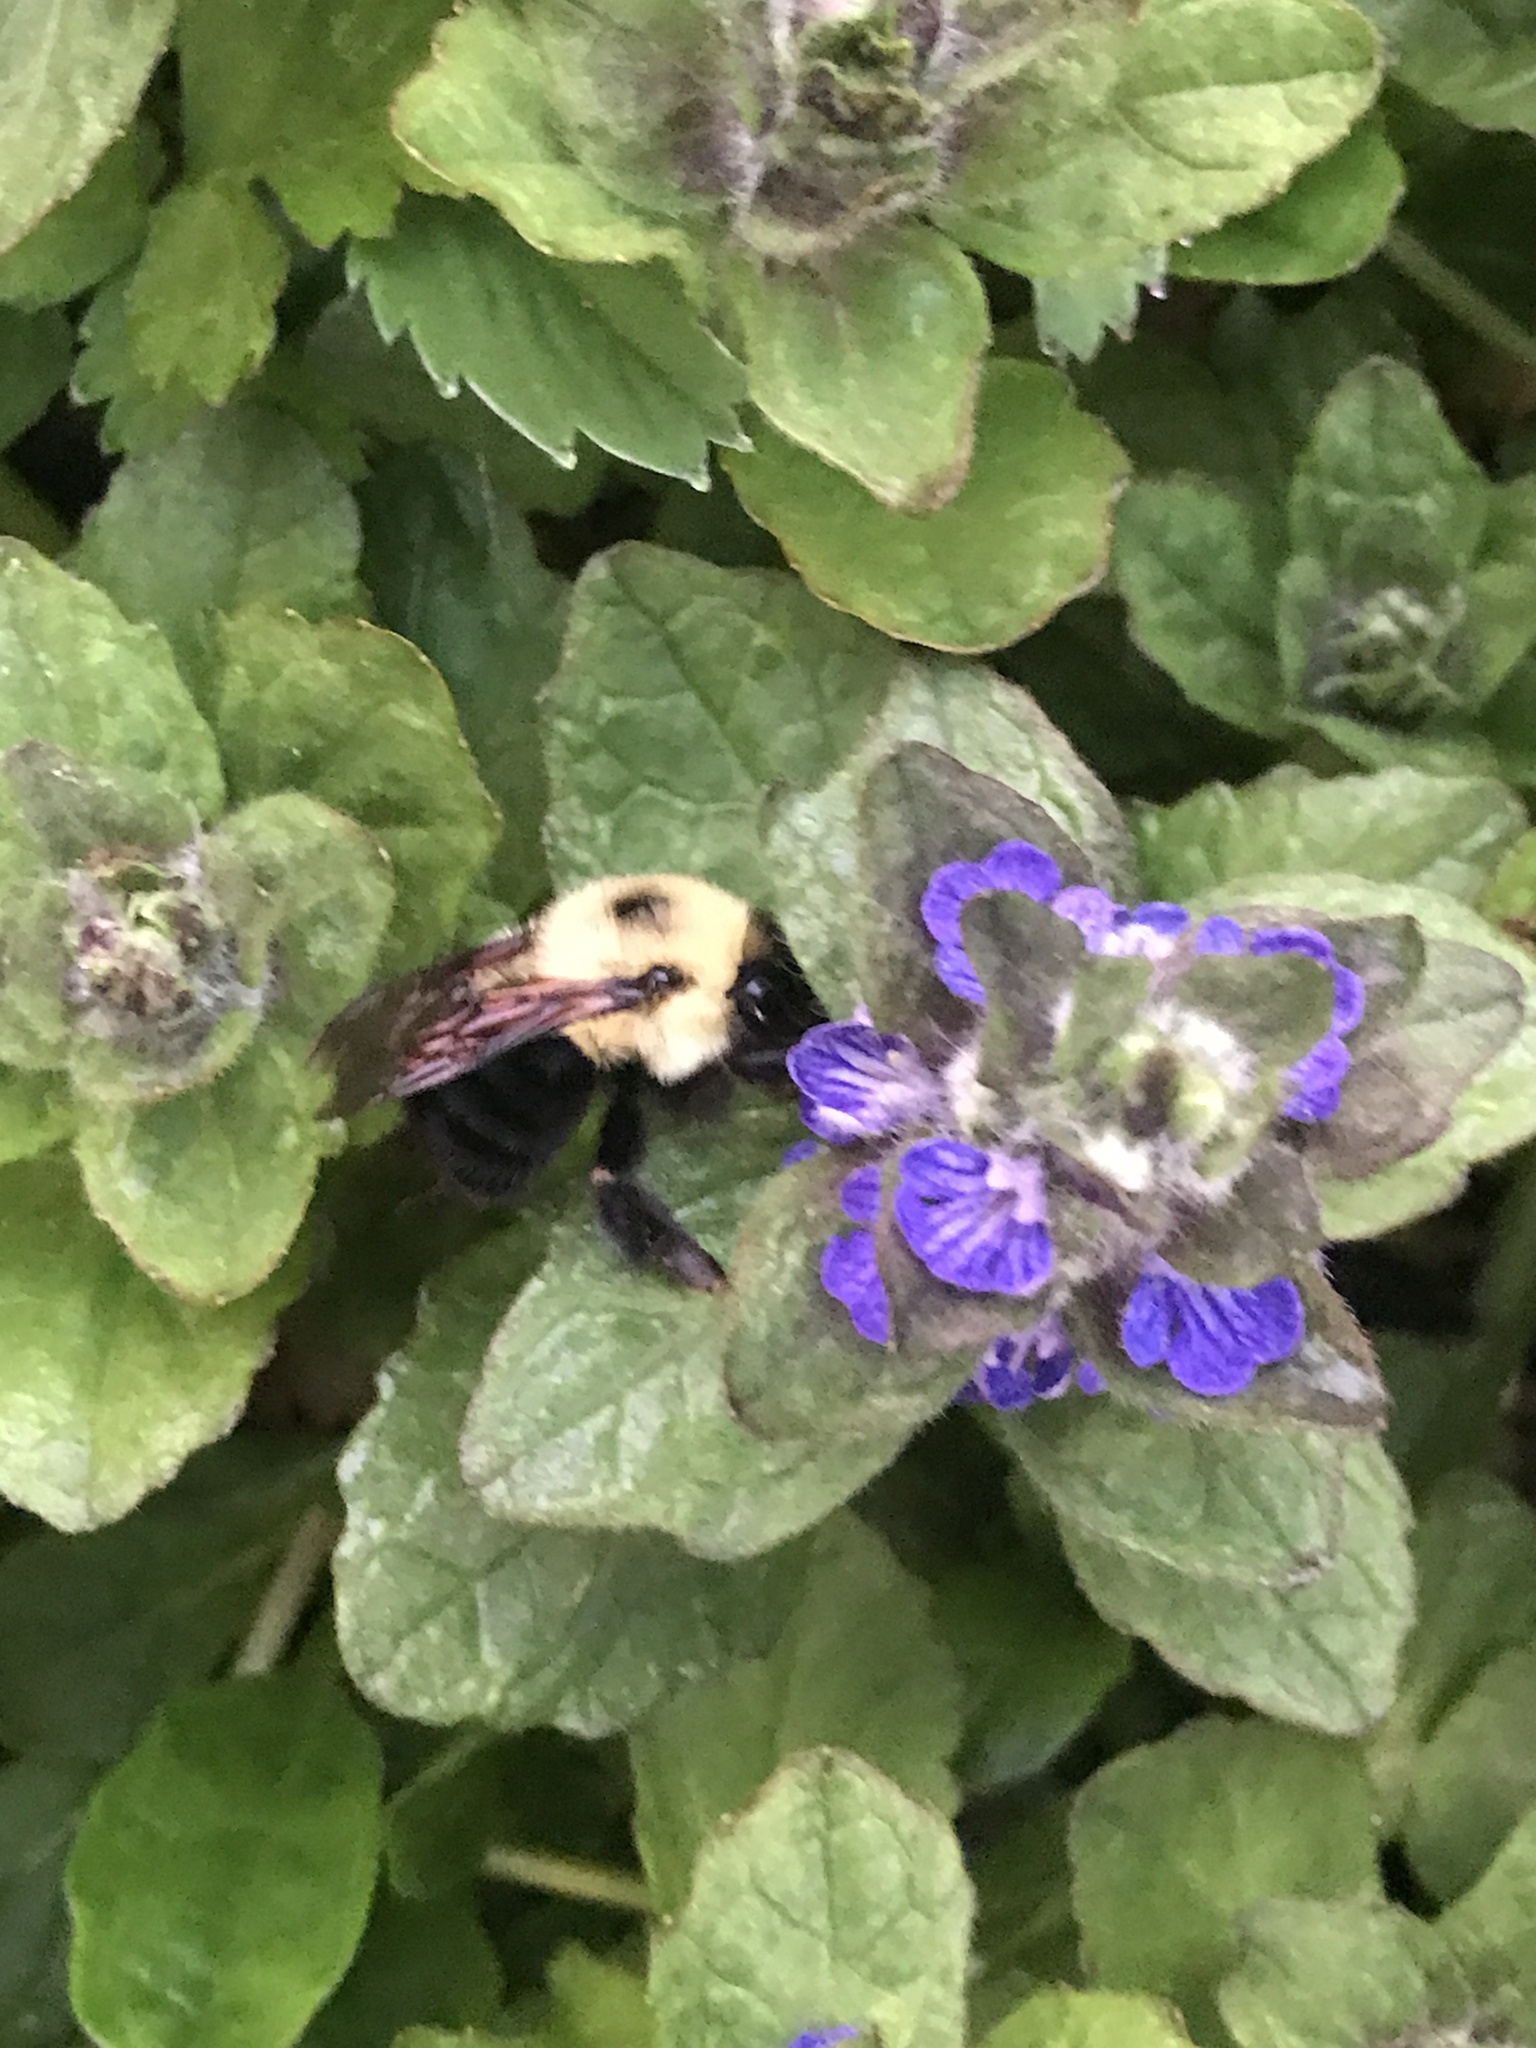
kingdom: Animalia
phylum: Arthropoda
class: Insecta
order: Hymenoptera
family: Apidae
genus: Bombus
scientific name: Bombus bimaculatus
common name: Two-spotted bumble bee
